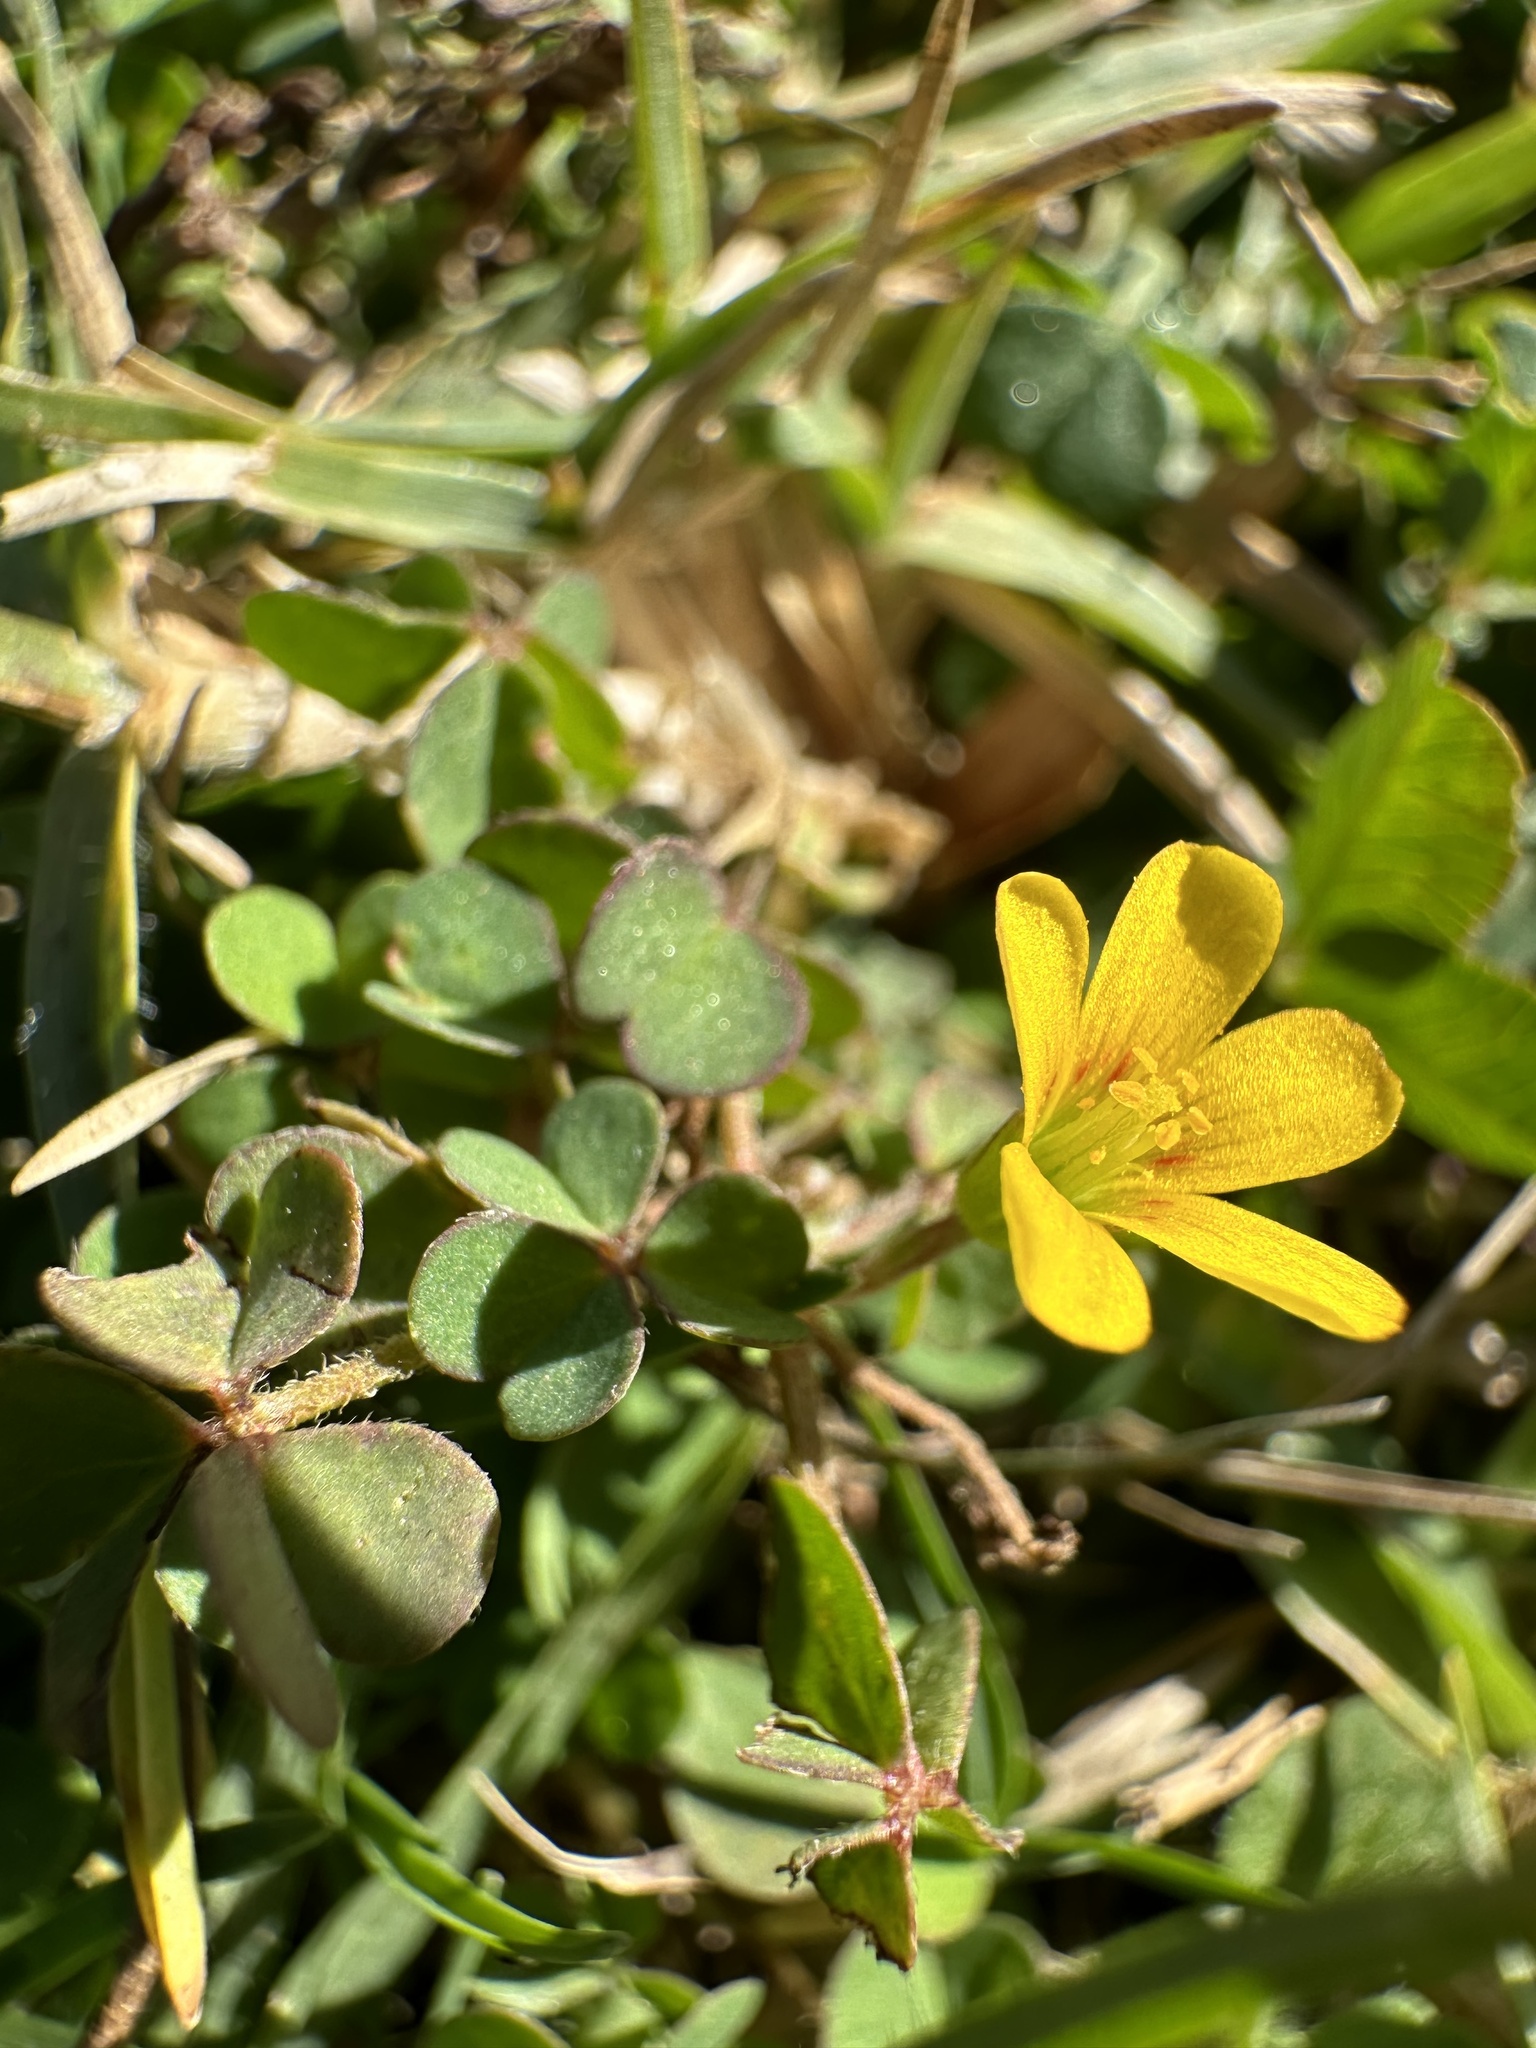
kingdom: Plantae
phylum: Tracheophyta
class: Magnoliopsida
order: Oxalidales
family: Oxalidaceae
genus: Oxalis
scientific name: Oxalis corniculata
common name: Procumbent yellow-sorrel
